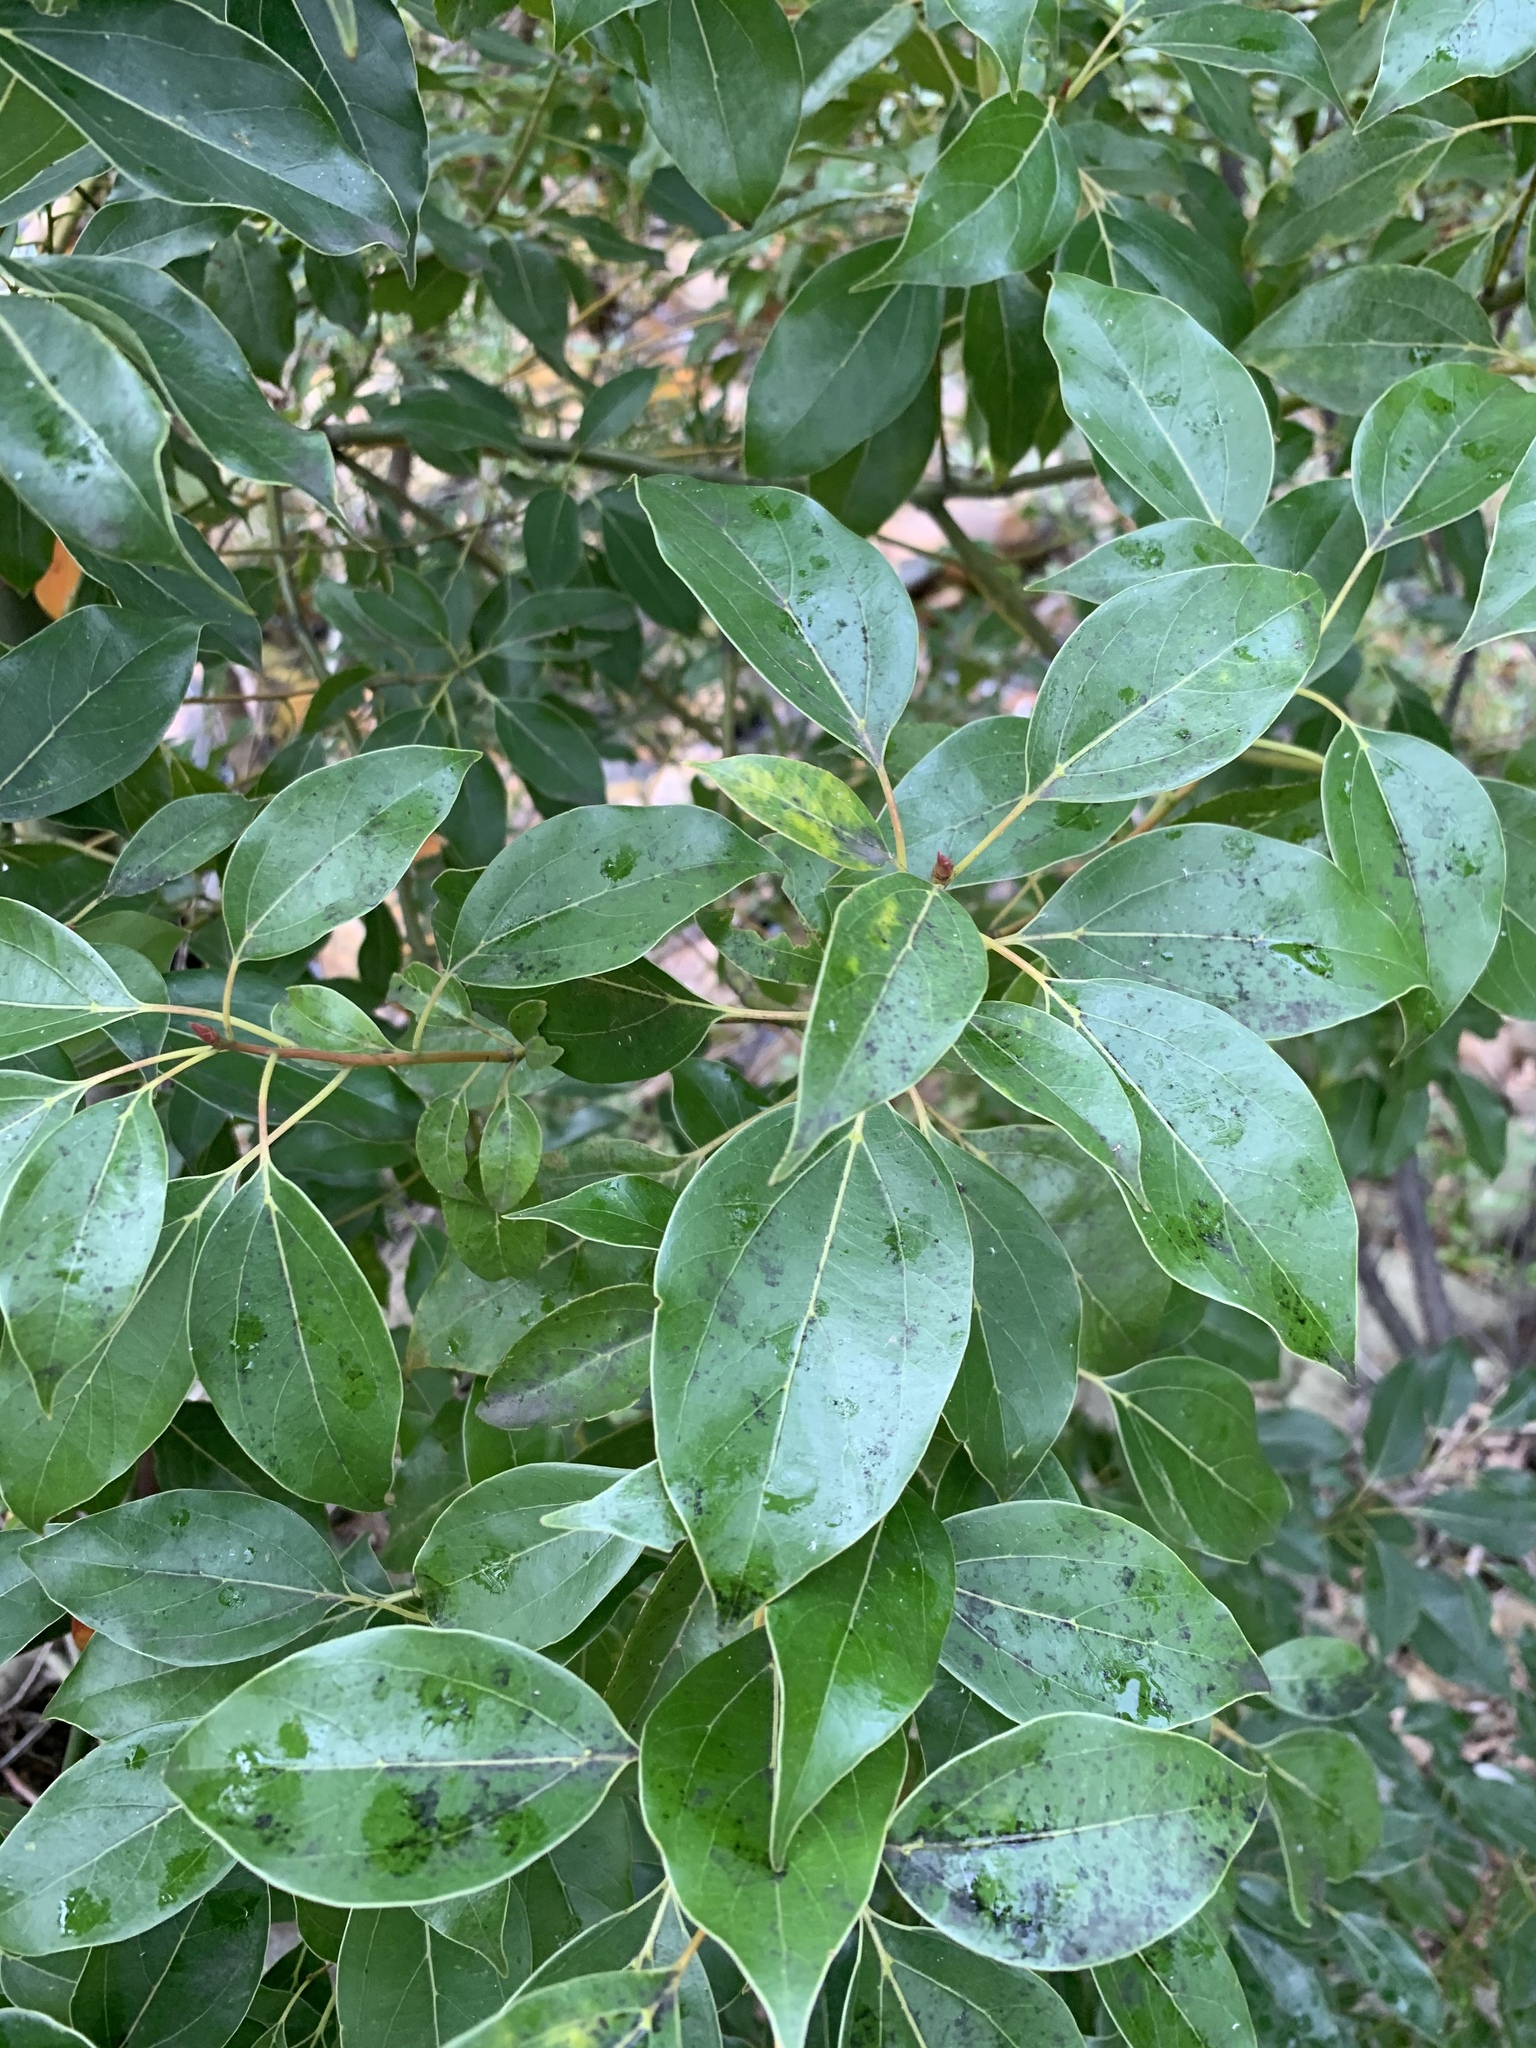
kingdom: Plantae
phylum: Tracheophyta
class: Magnoliopsida
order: Laurales
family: Lauraceae
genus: Cinnamomum
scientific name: Cinnamomum camphora
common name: Camphortree
